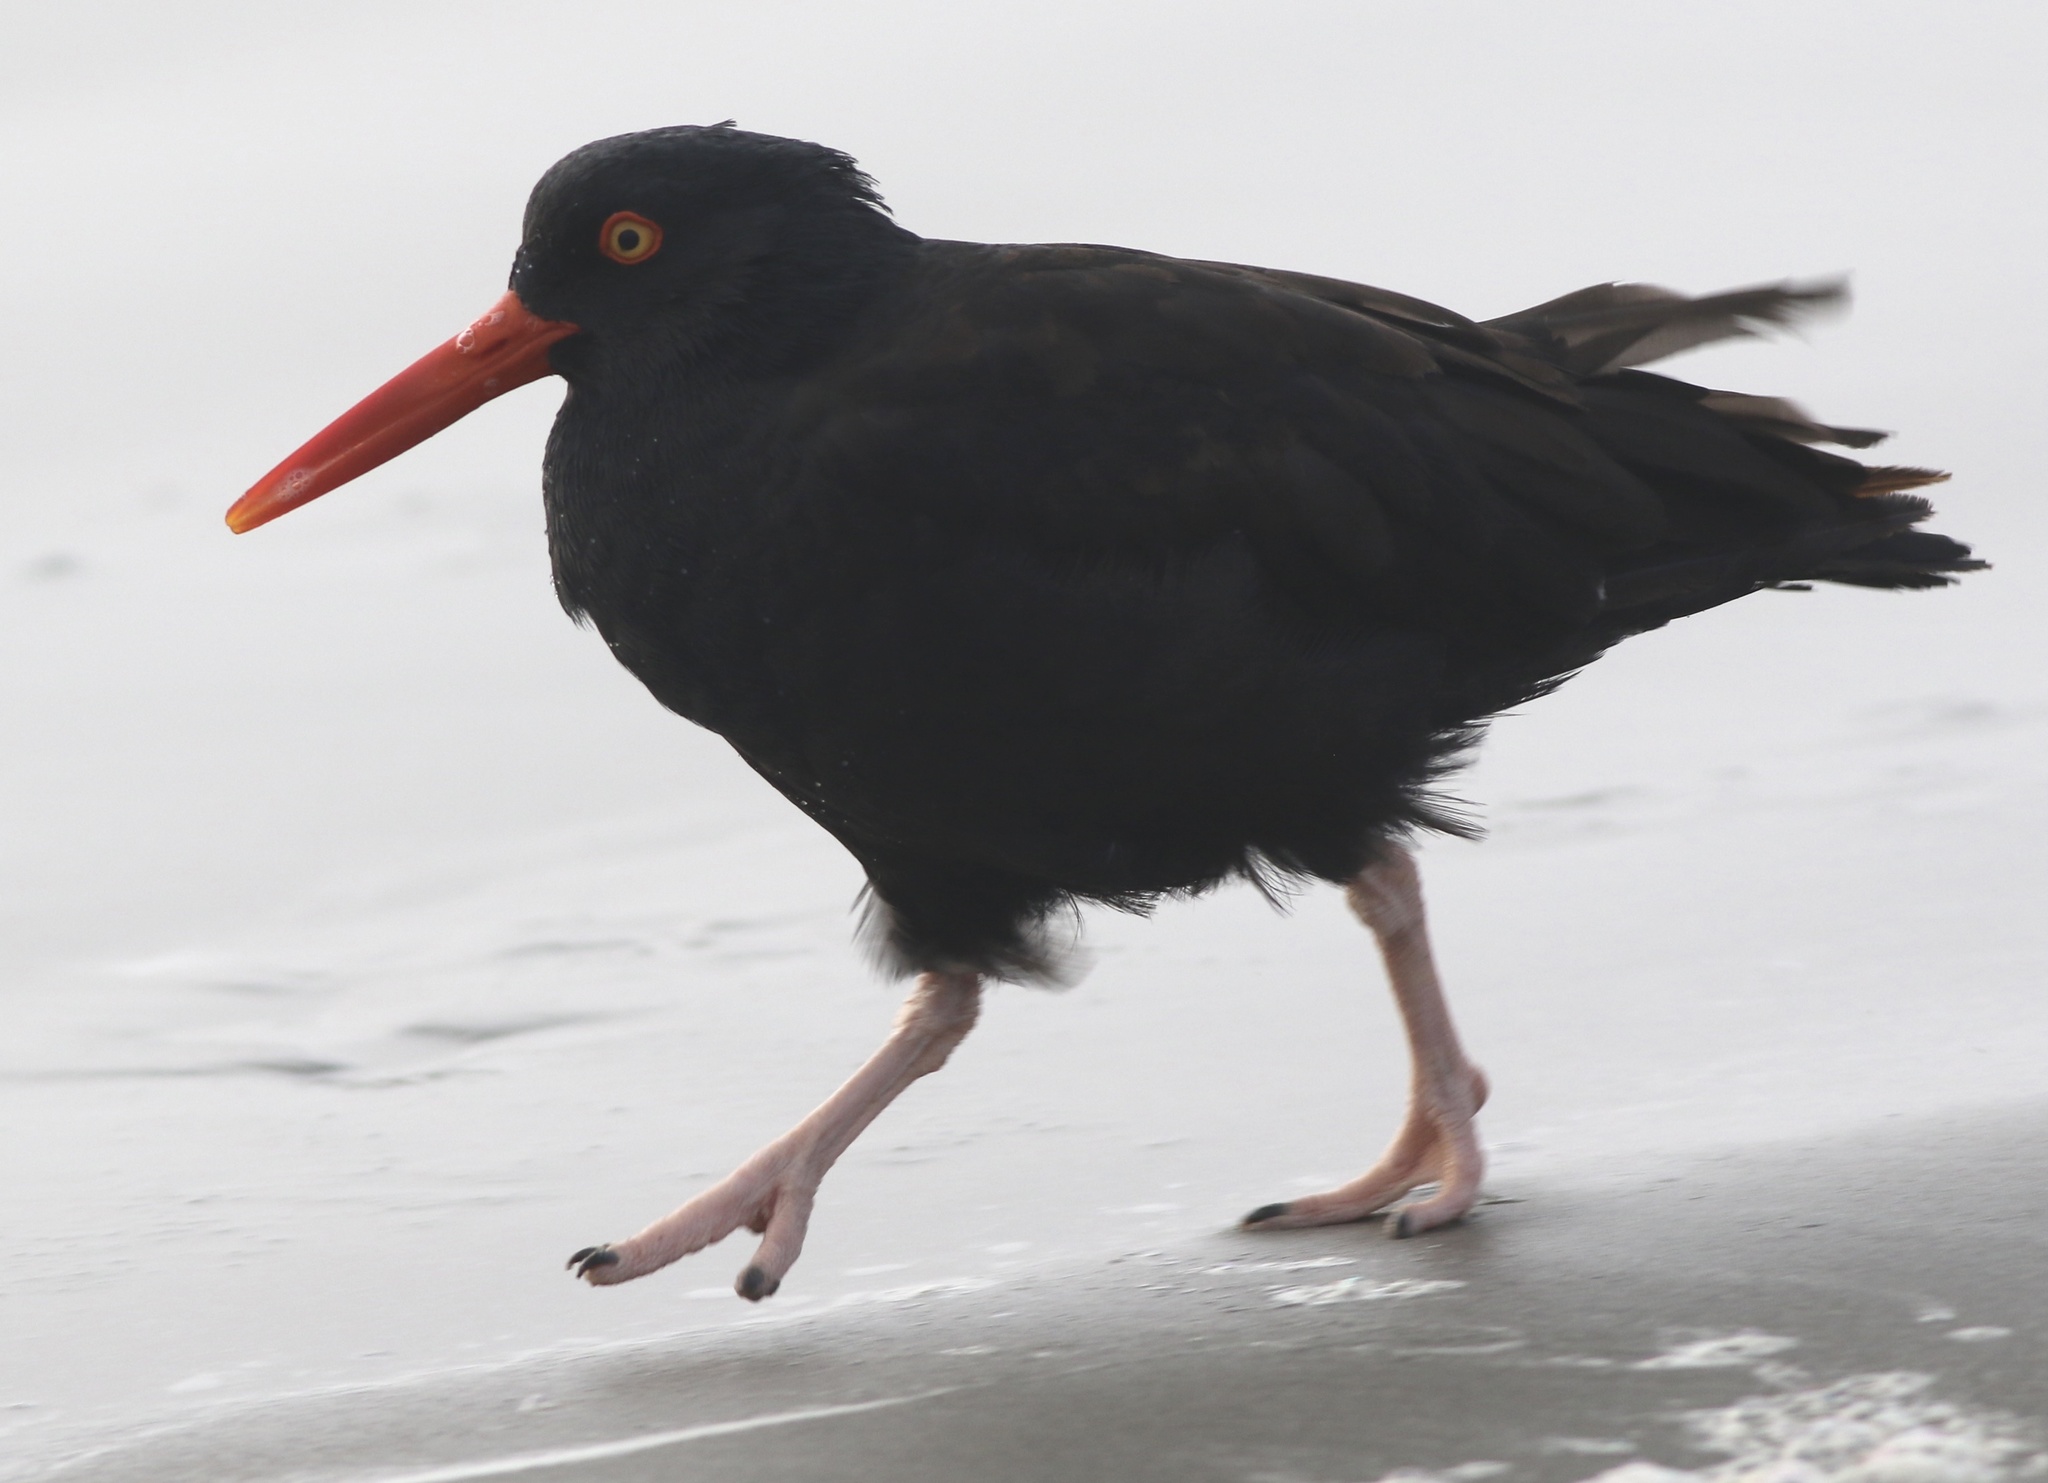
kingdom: Animalia
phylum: Chordata
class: Aves
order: Charadriiformes
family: Haematopodidae
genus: Haematopus
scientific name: Haematopus bachmani
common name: Black oystercatcher
